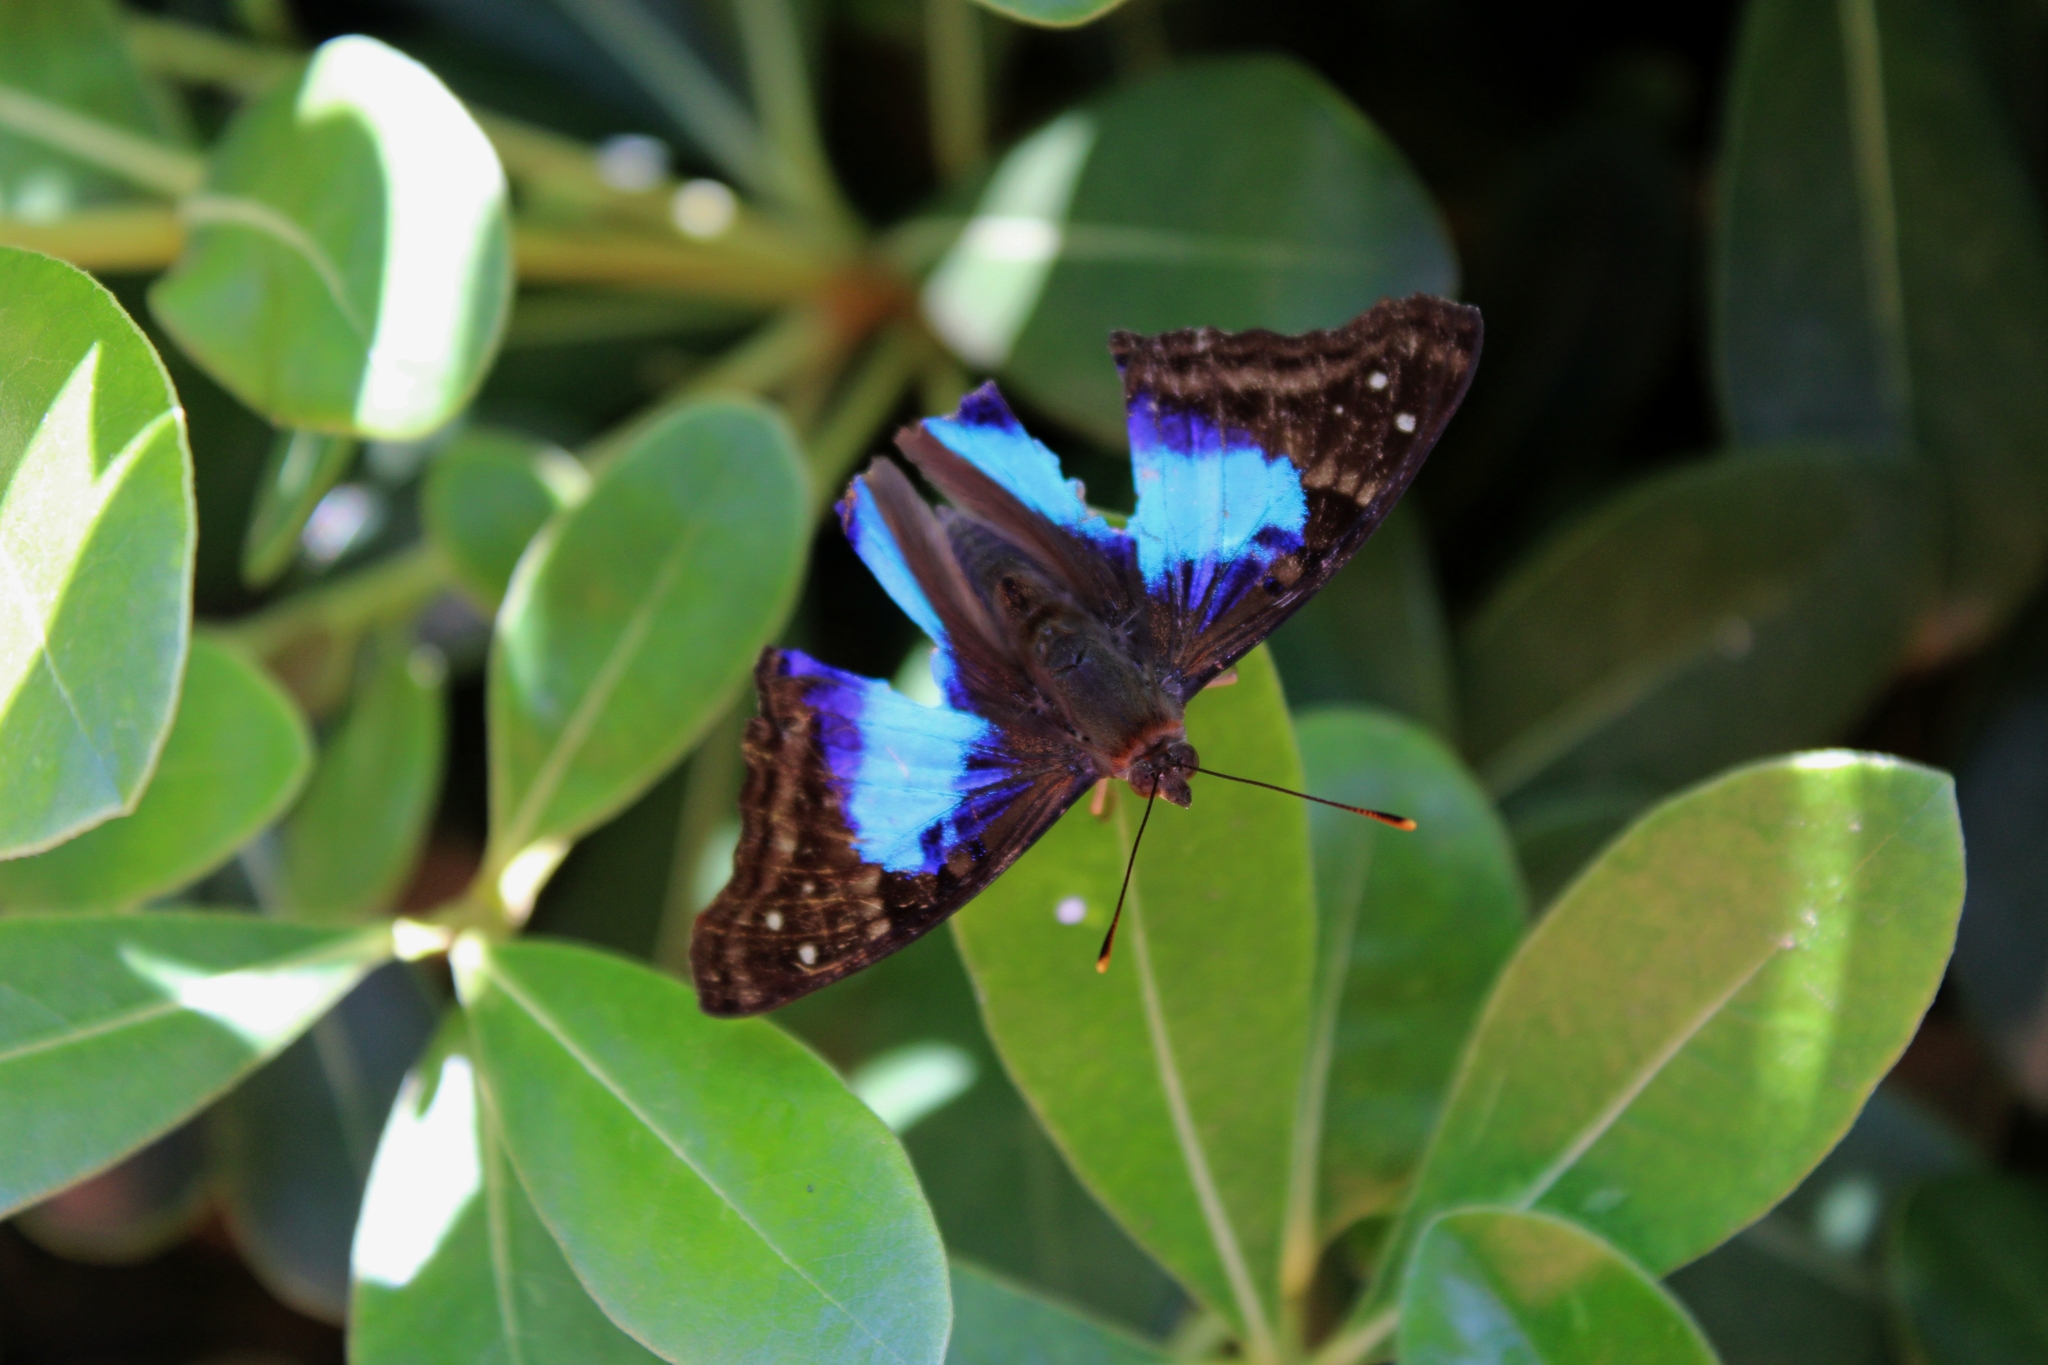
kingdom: Animalia
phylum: Arthropoda
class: Insecta
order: Lepidoptera
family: Nymphalidae
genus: Doxocopa
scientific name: Doxocopa laurentia
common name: Turquoise emperor
